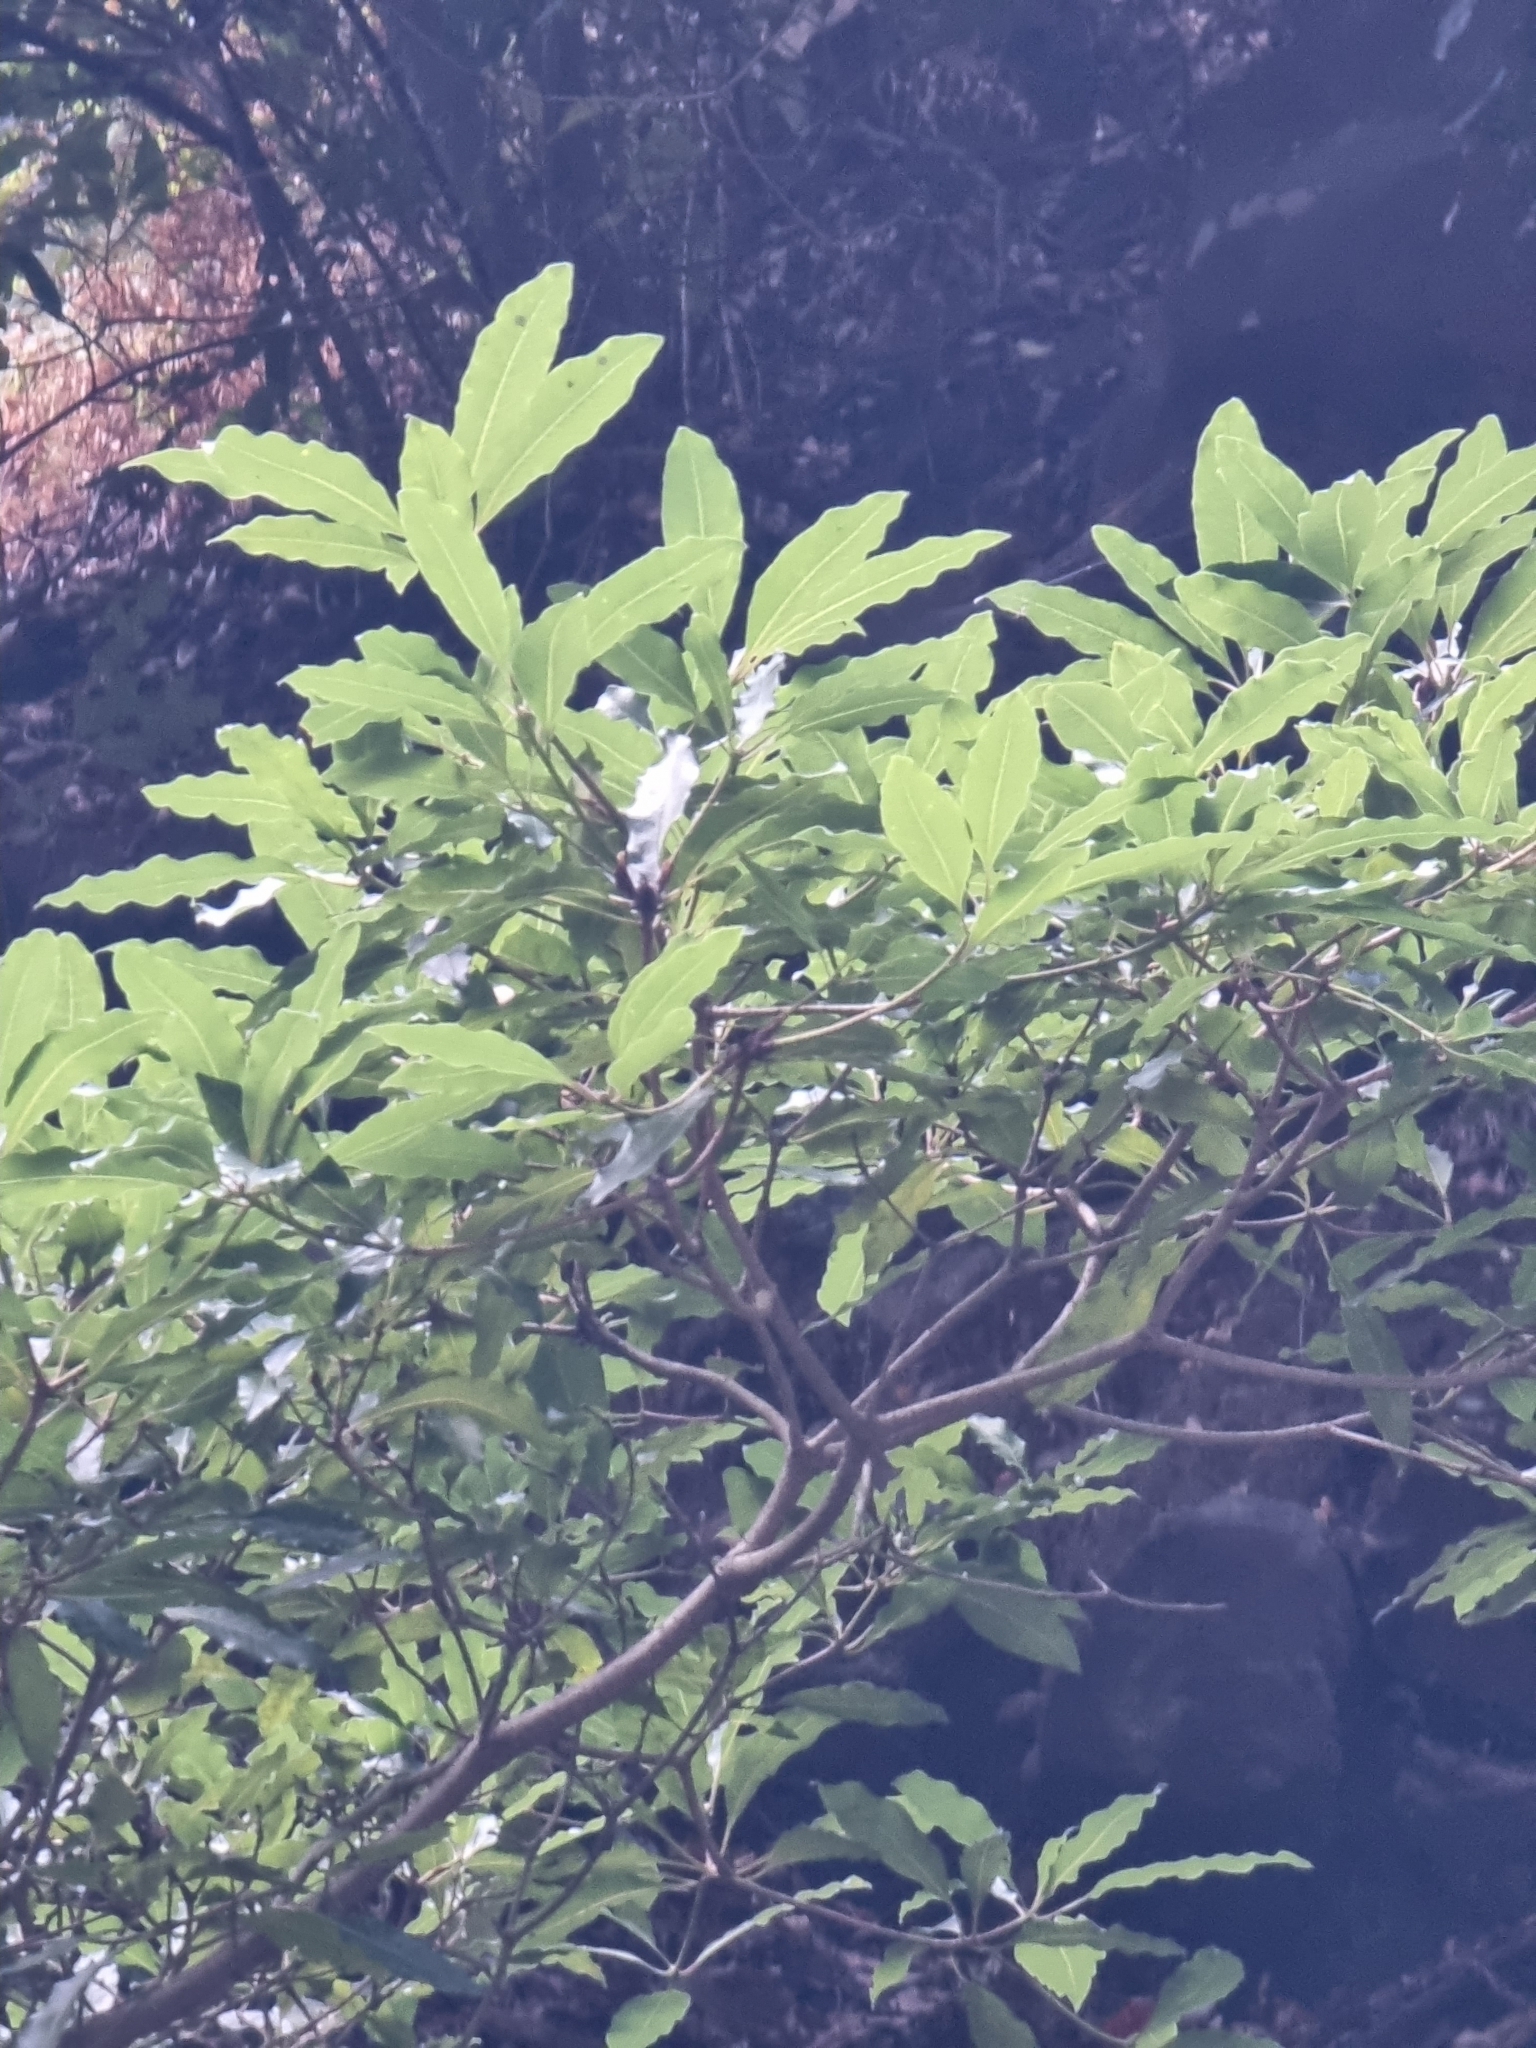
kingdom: Plantae
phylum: Tracheophyta
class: Magnoliopsida
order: Apiales
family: Pittosporaceae
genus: Pittosporum
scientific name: Pittosporum undulatum
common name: Australian cheesewood
